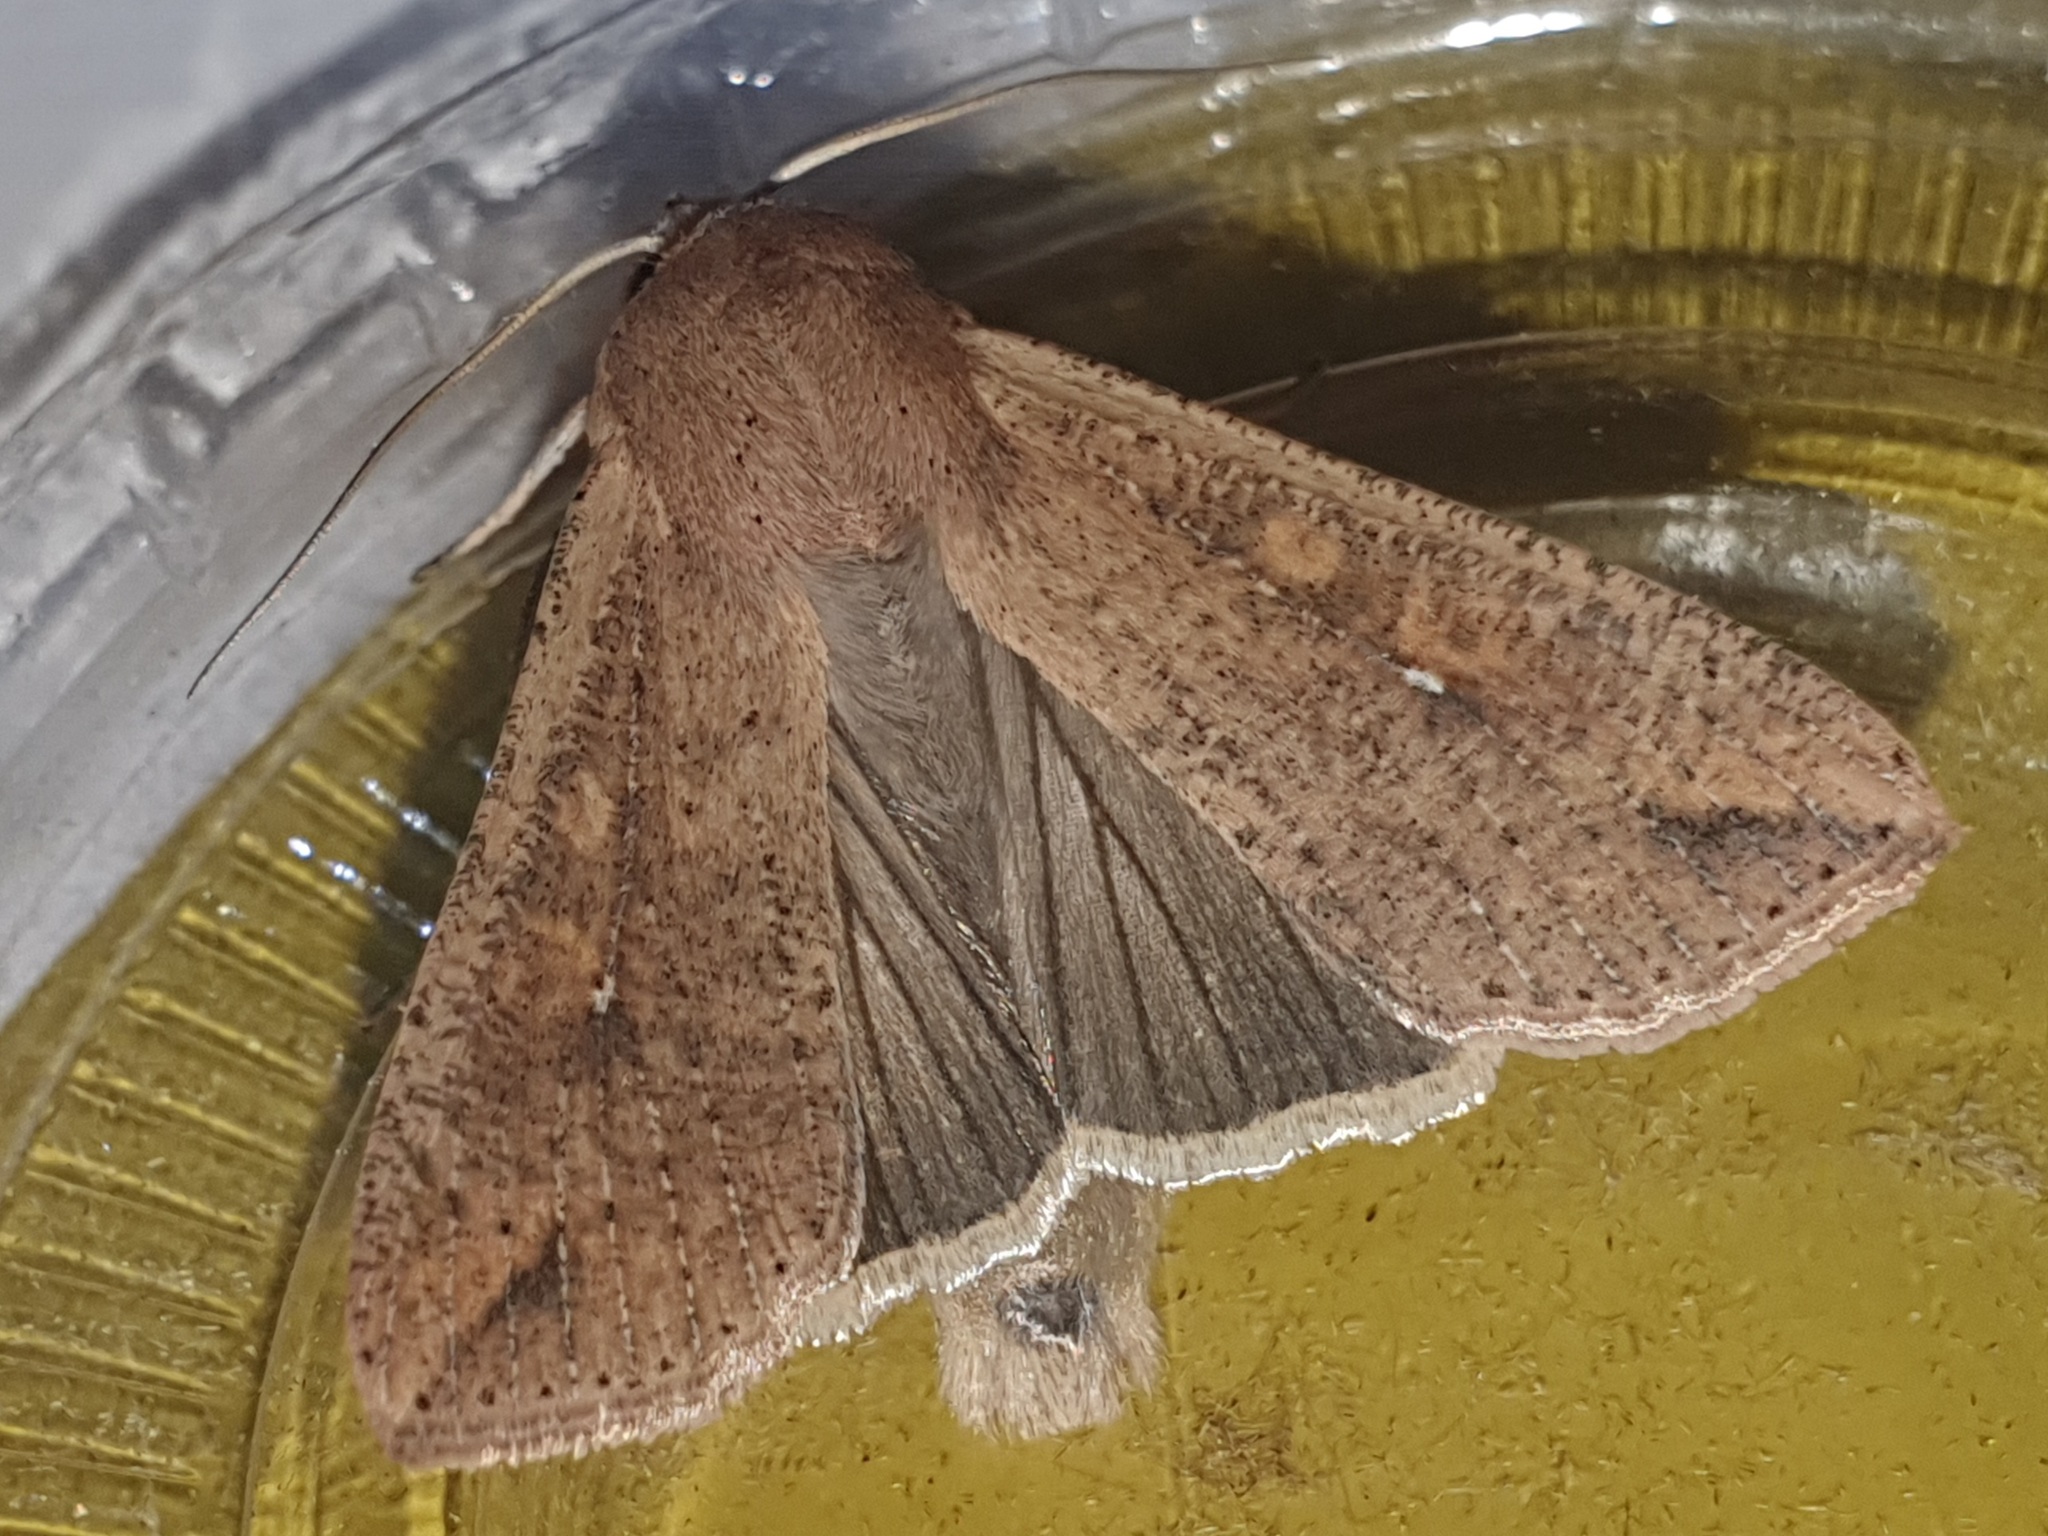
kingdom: Animalia
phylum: Arthropoda
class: Insecta
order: Lepidoptera
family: Noctuidae
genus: Mythimna
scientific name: Mythimna unipuncta
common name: White-speck
